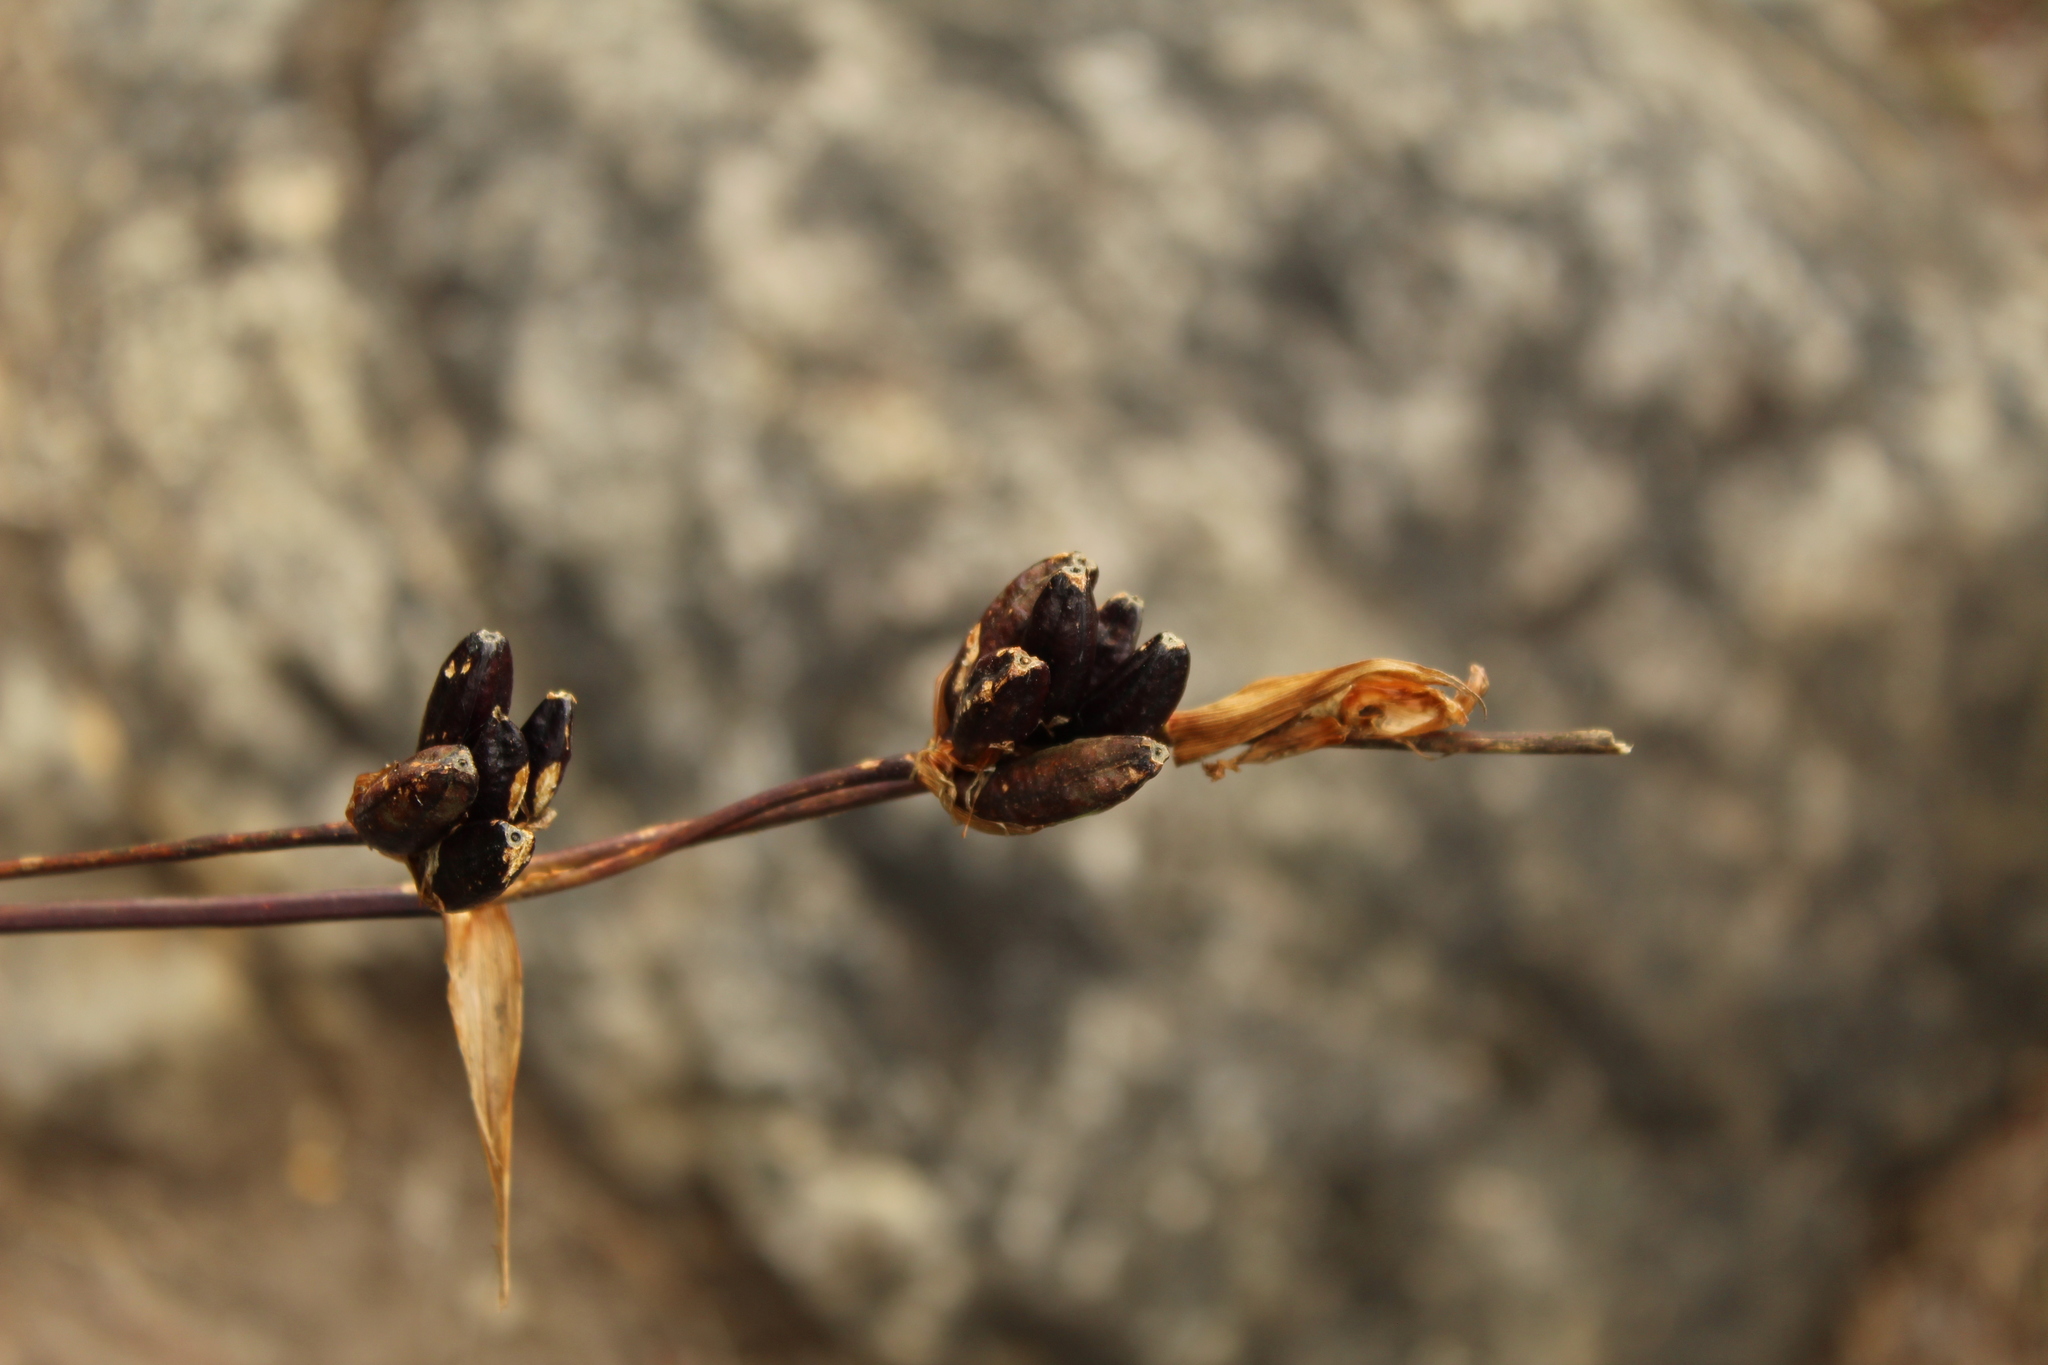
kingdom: Plantae
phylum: Tracheophyta
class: Liliopsida
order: Asparagales
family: Iridaceae
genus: Orthrosanthus
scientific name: Orthrosanthus chimboracensis
